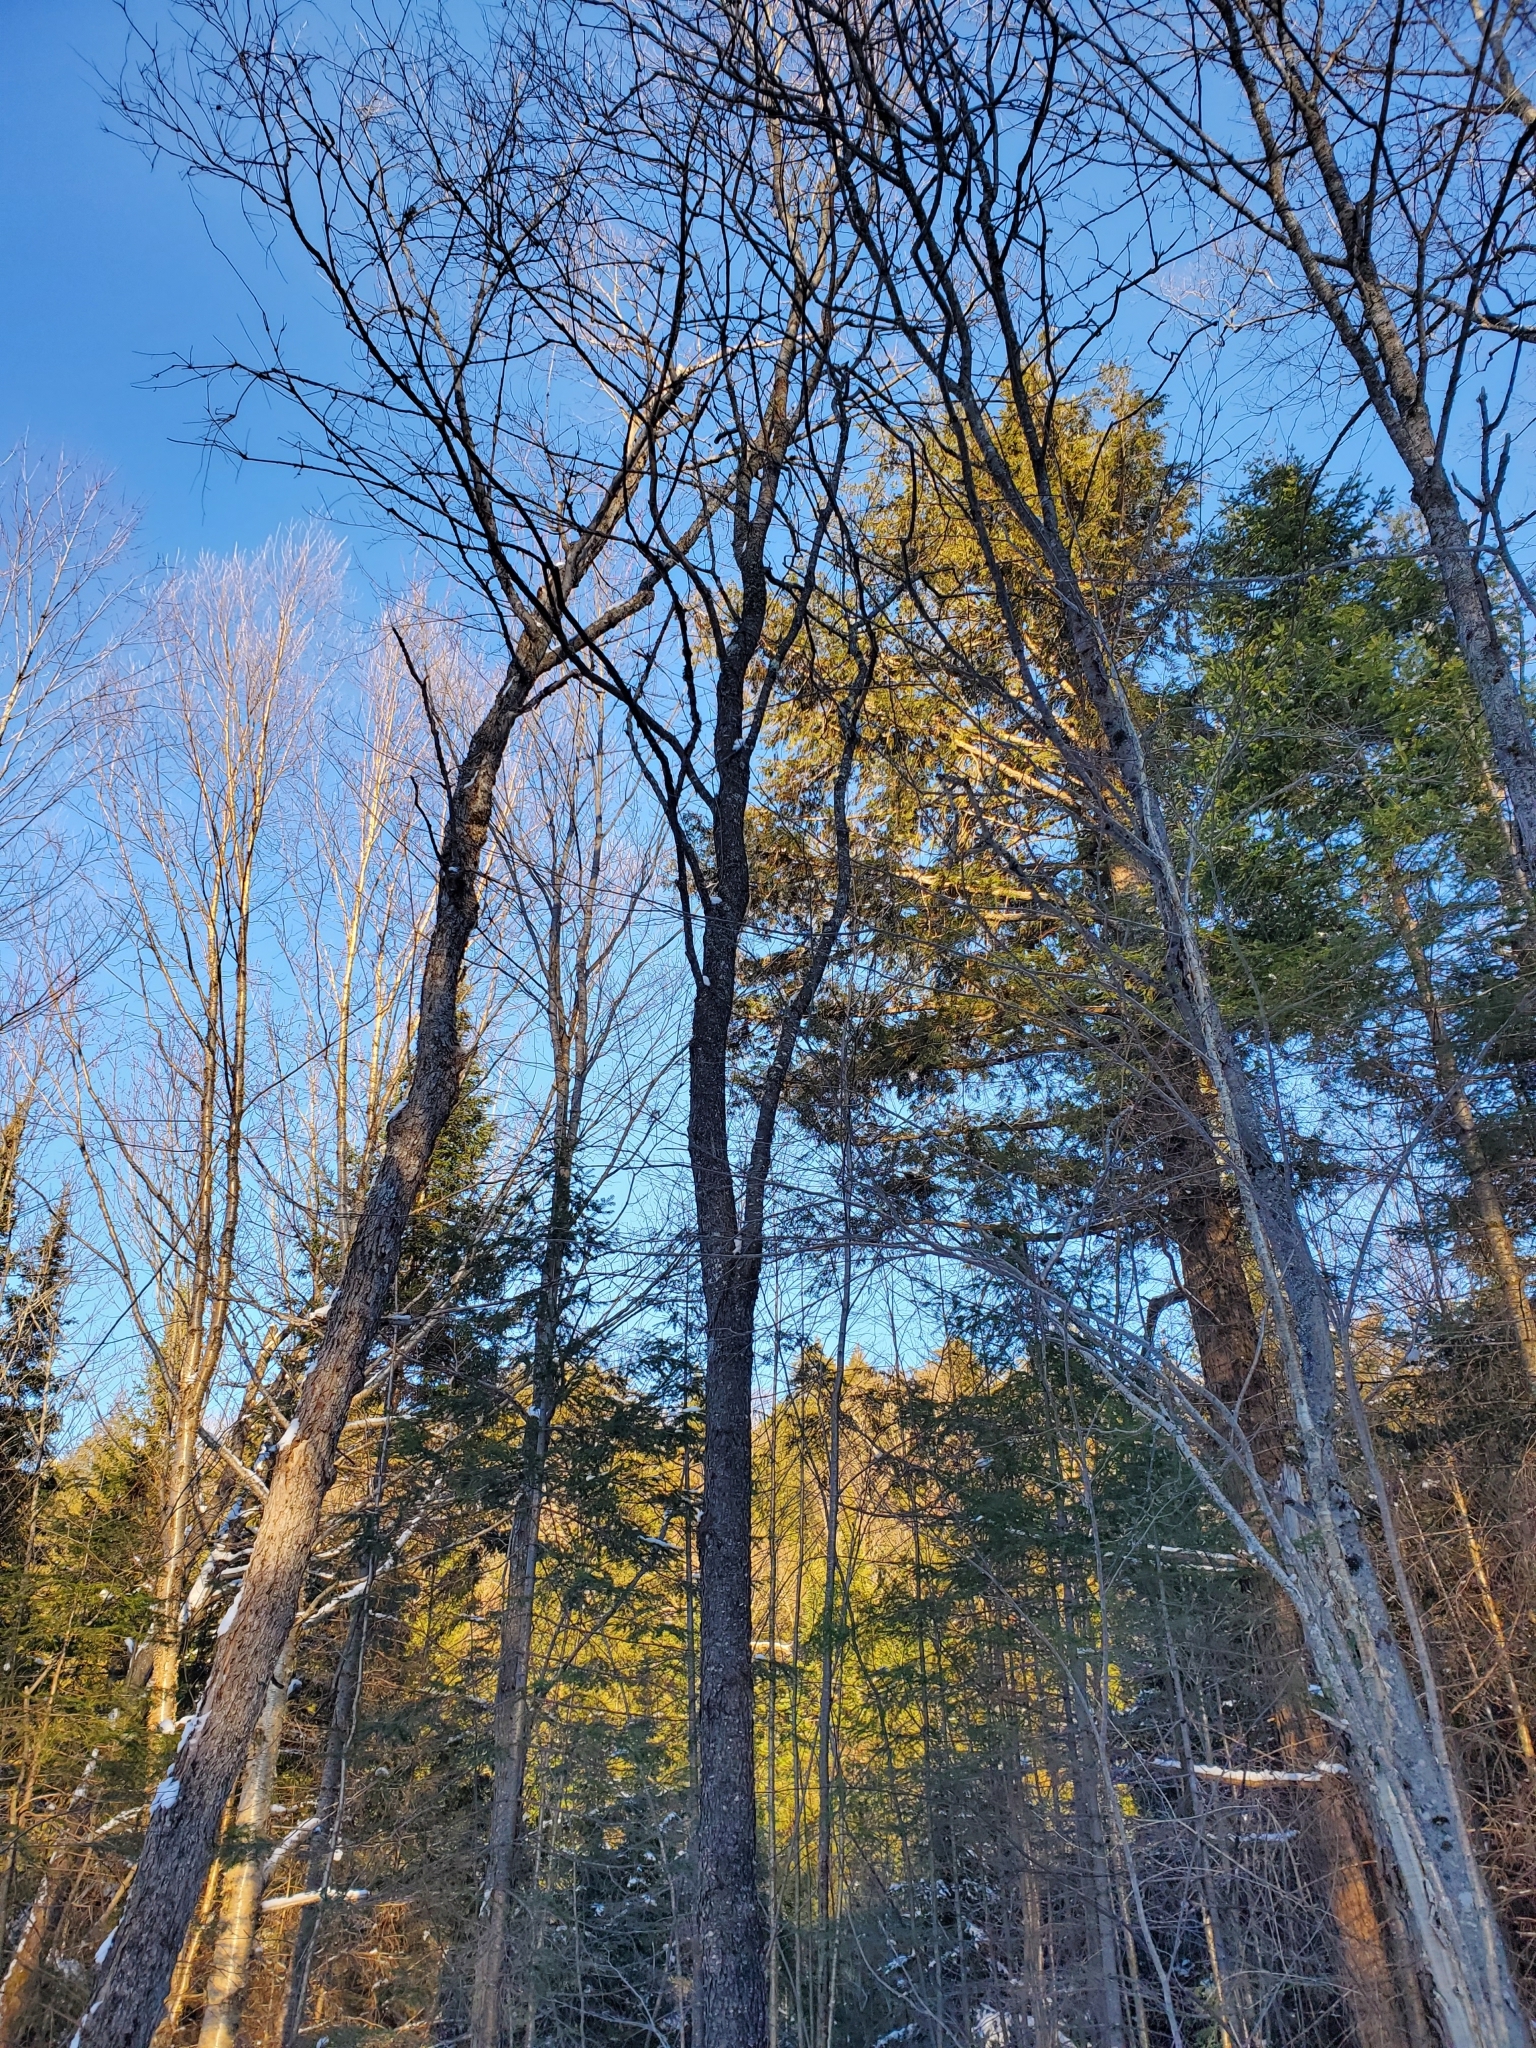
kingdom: Plantae
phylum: Tracheophyta
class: Magnoliopsida
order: Rosales
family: Rosaceae
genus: Prunus
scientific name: Prunus serotina
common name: Black cherry
